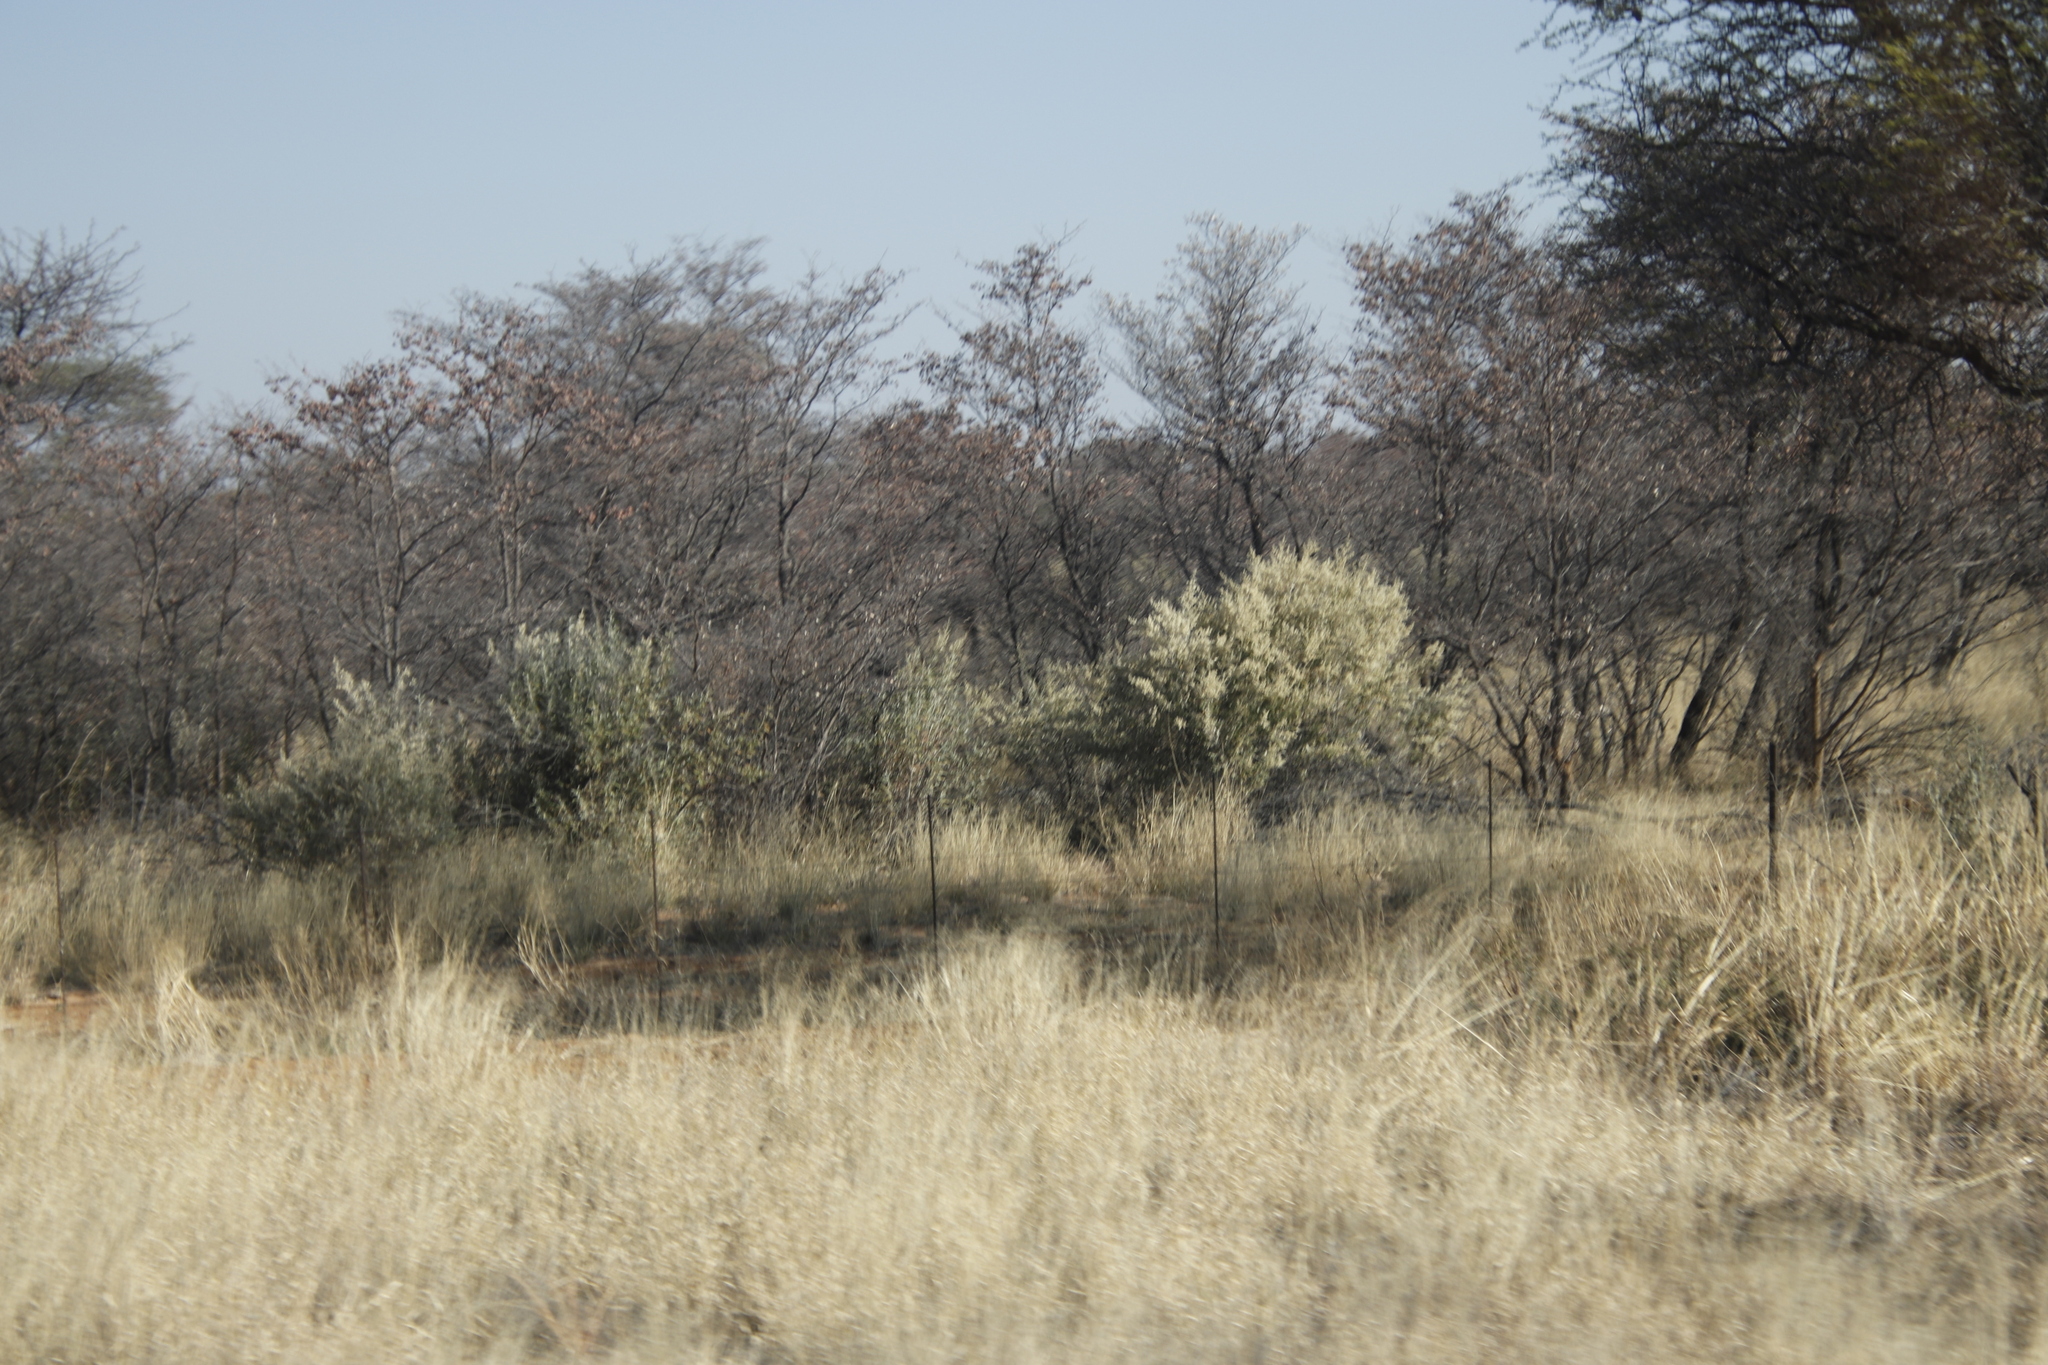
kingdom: Plantae
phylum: Tracheophyta
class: Magnoliopsida
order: Myrtales
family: Combretaceae
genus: Terminalia
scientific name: Terminalia sericea
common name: Clusterleaf
